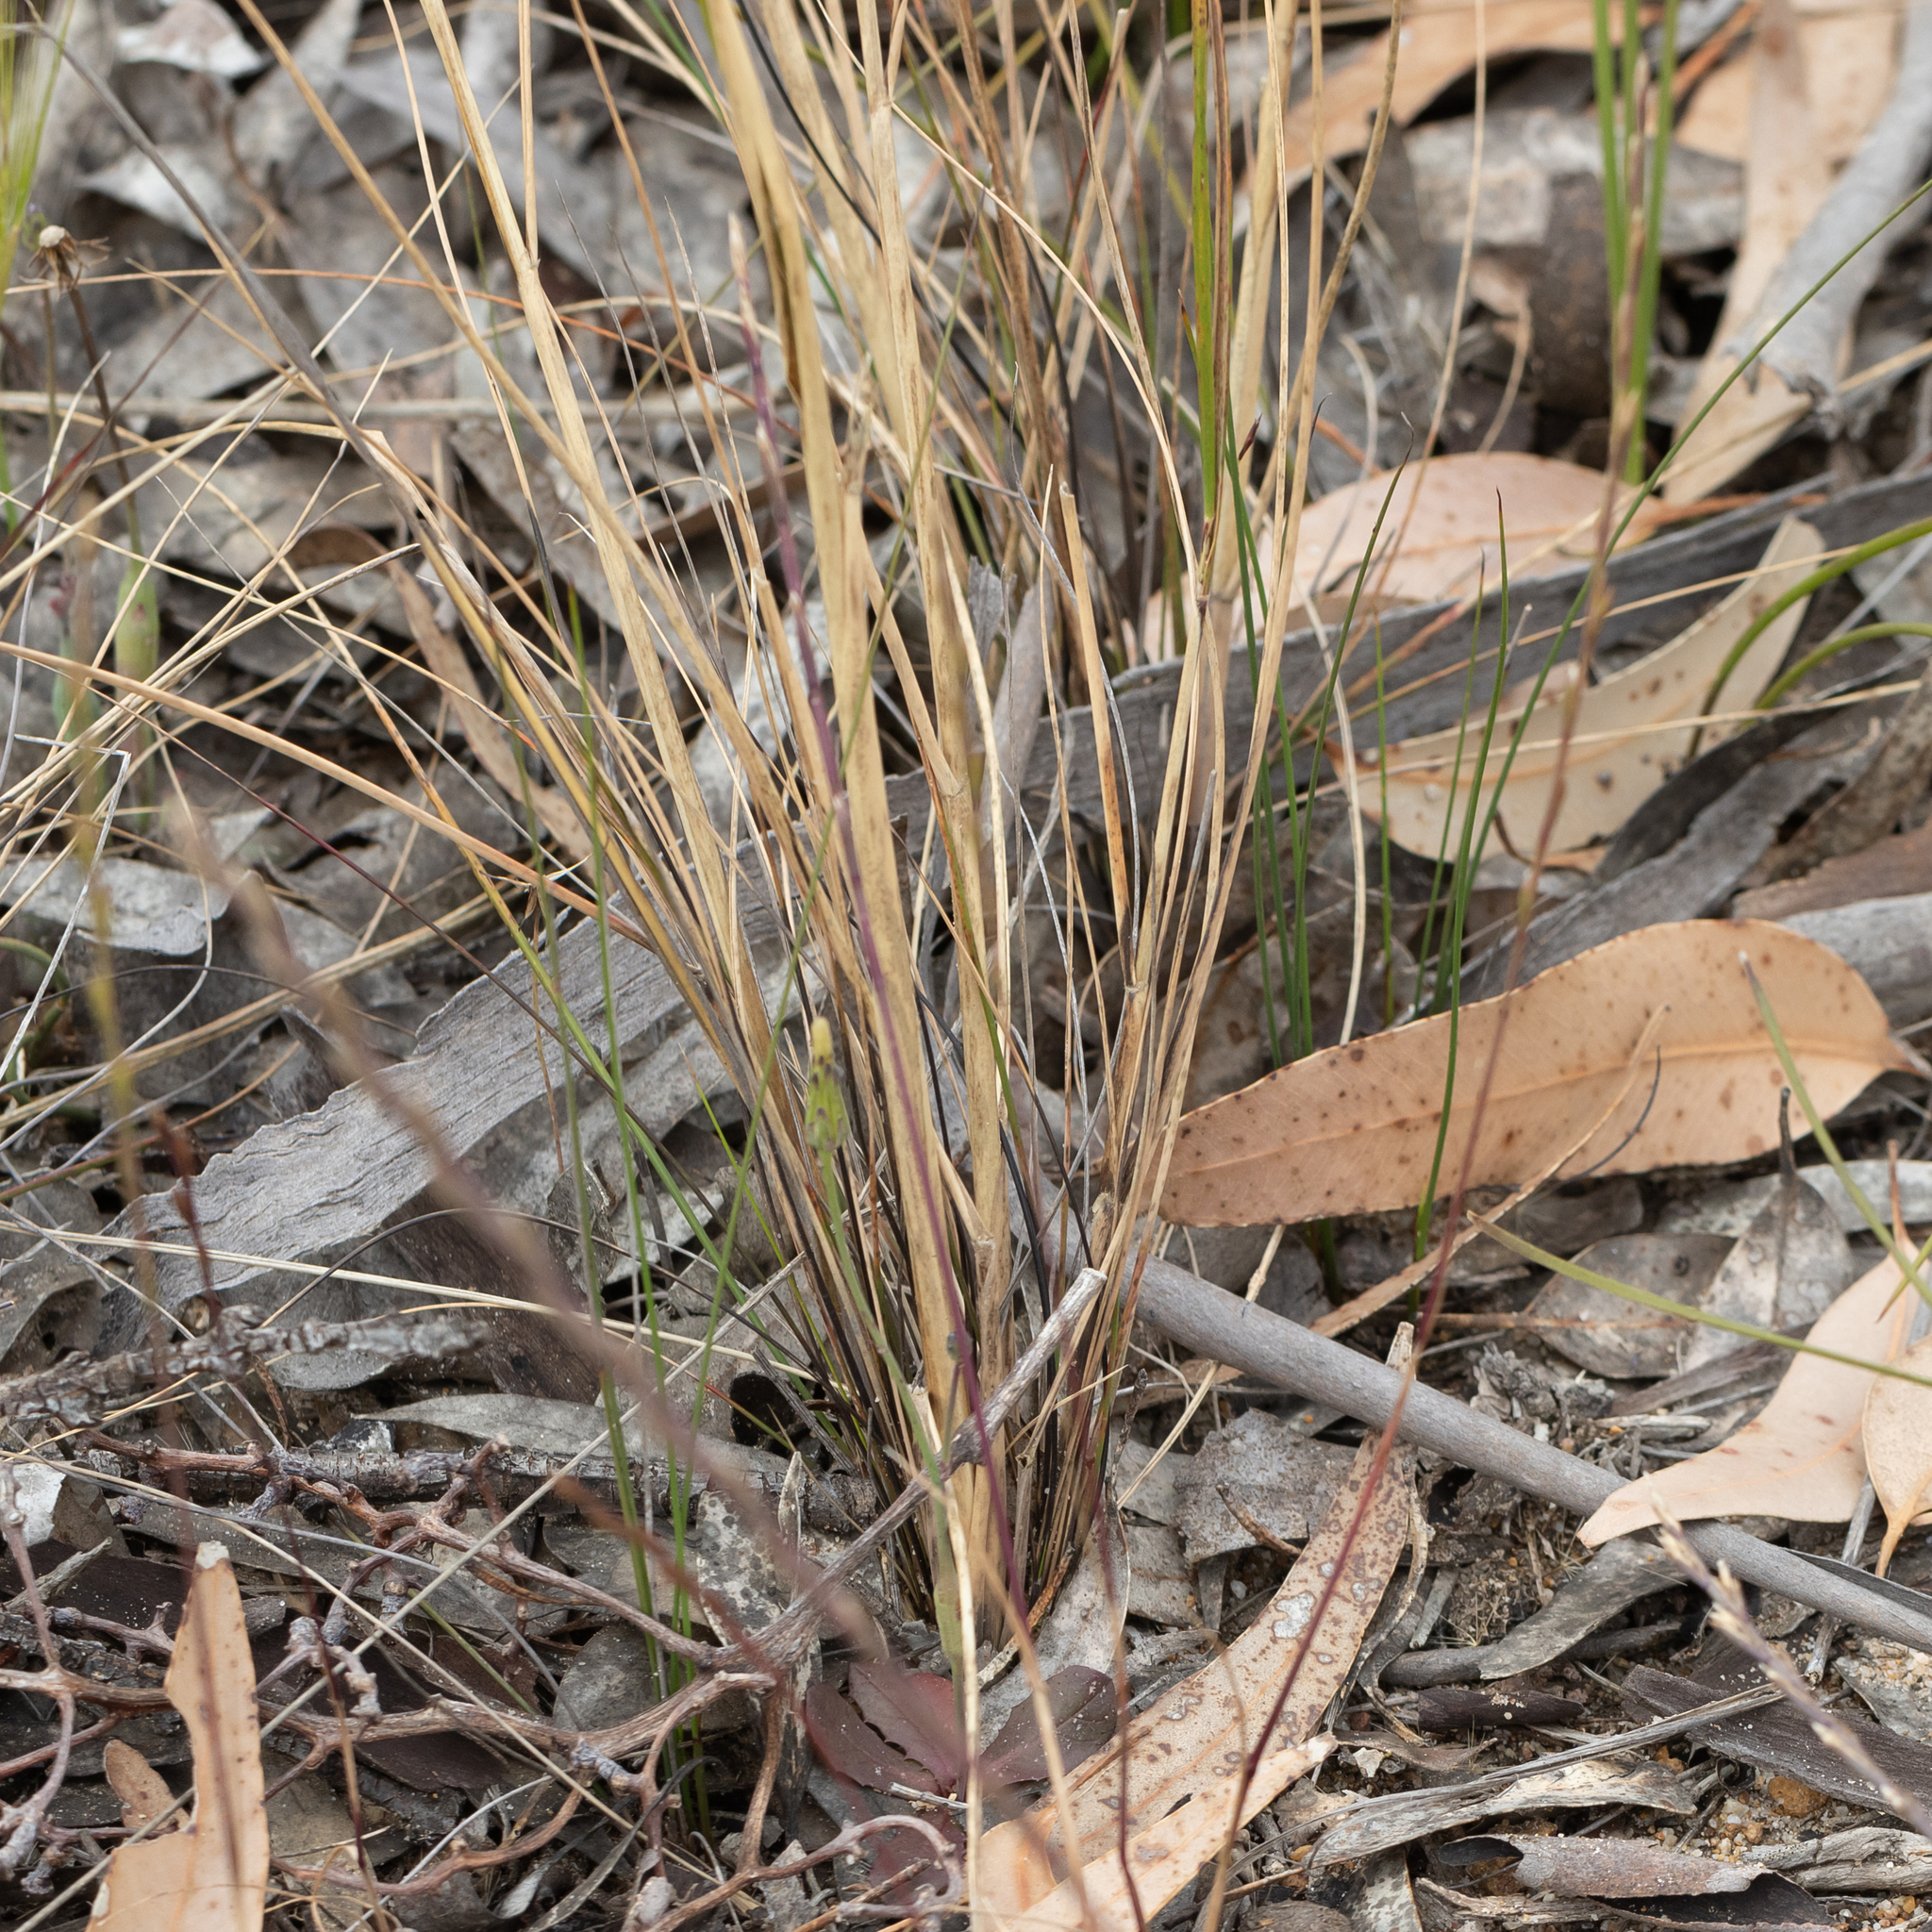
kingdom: Plantae
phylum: Tracheophyta
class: Liliopsida
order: Poales
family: Poaceae
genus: Austrostipa
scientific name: Austrostipa hemipogon
